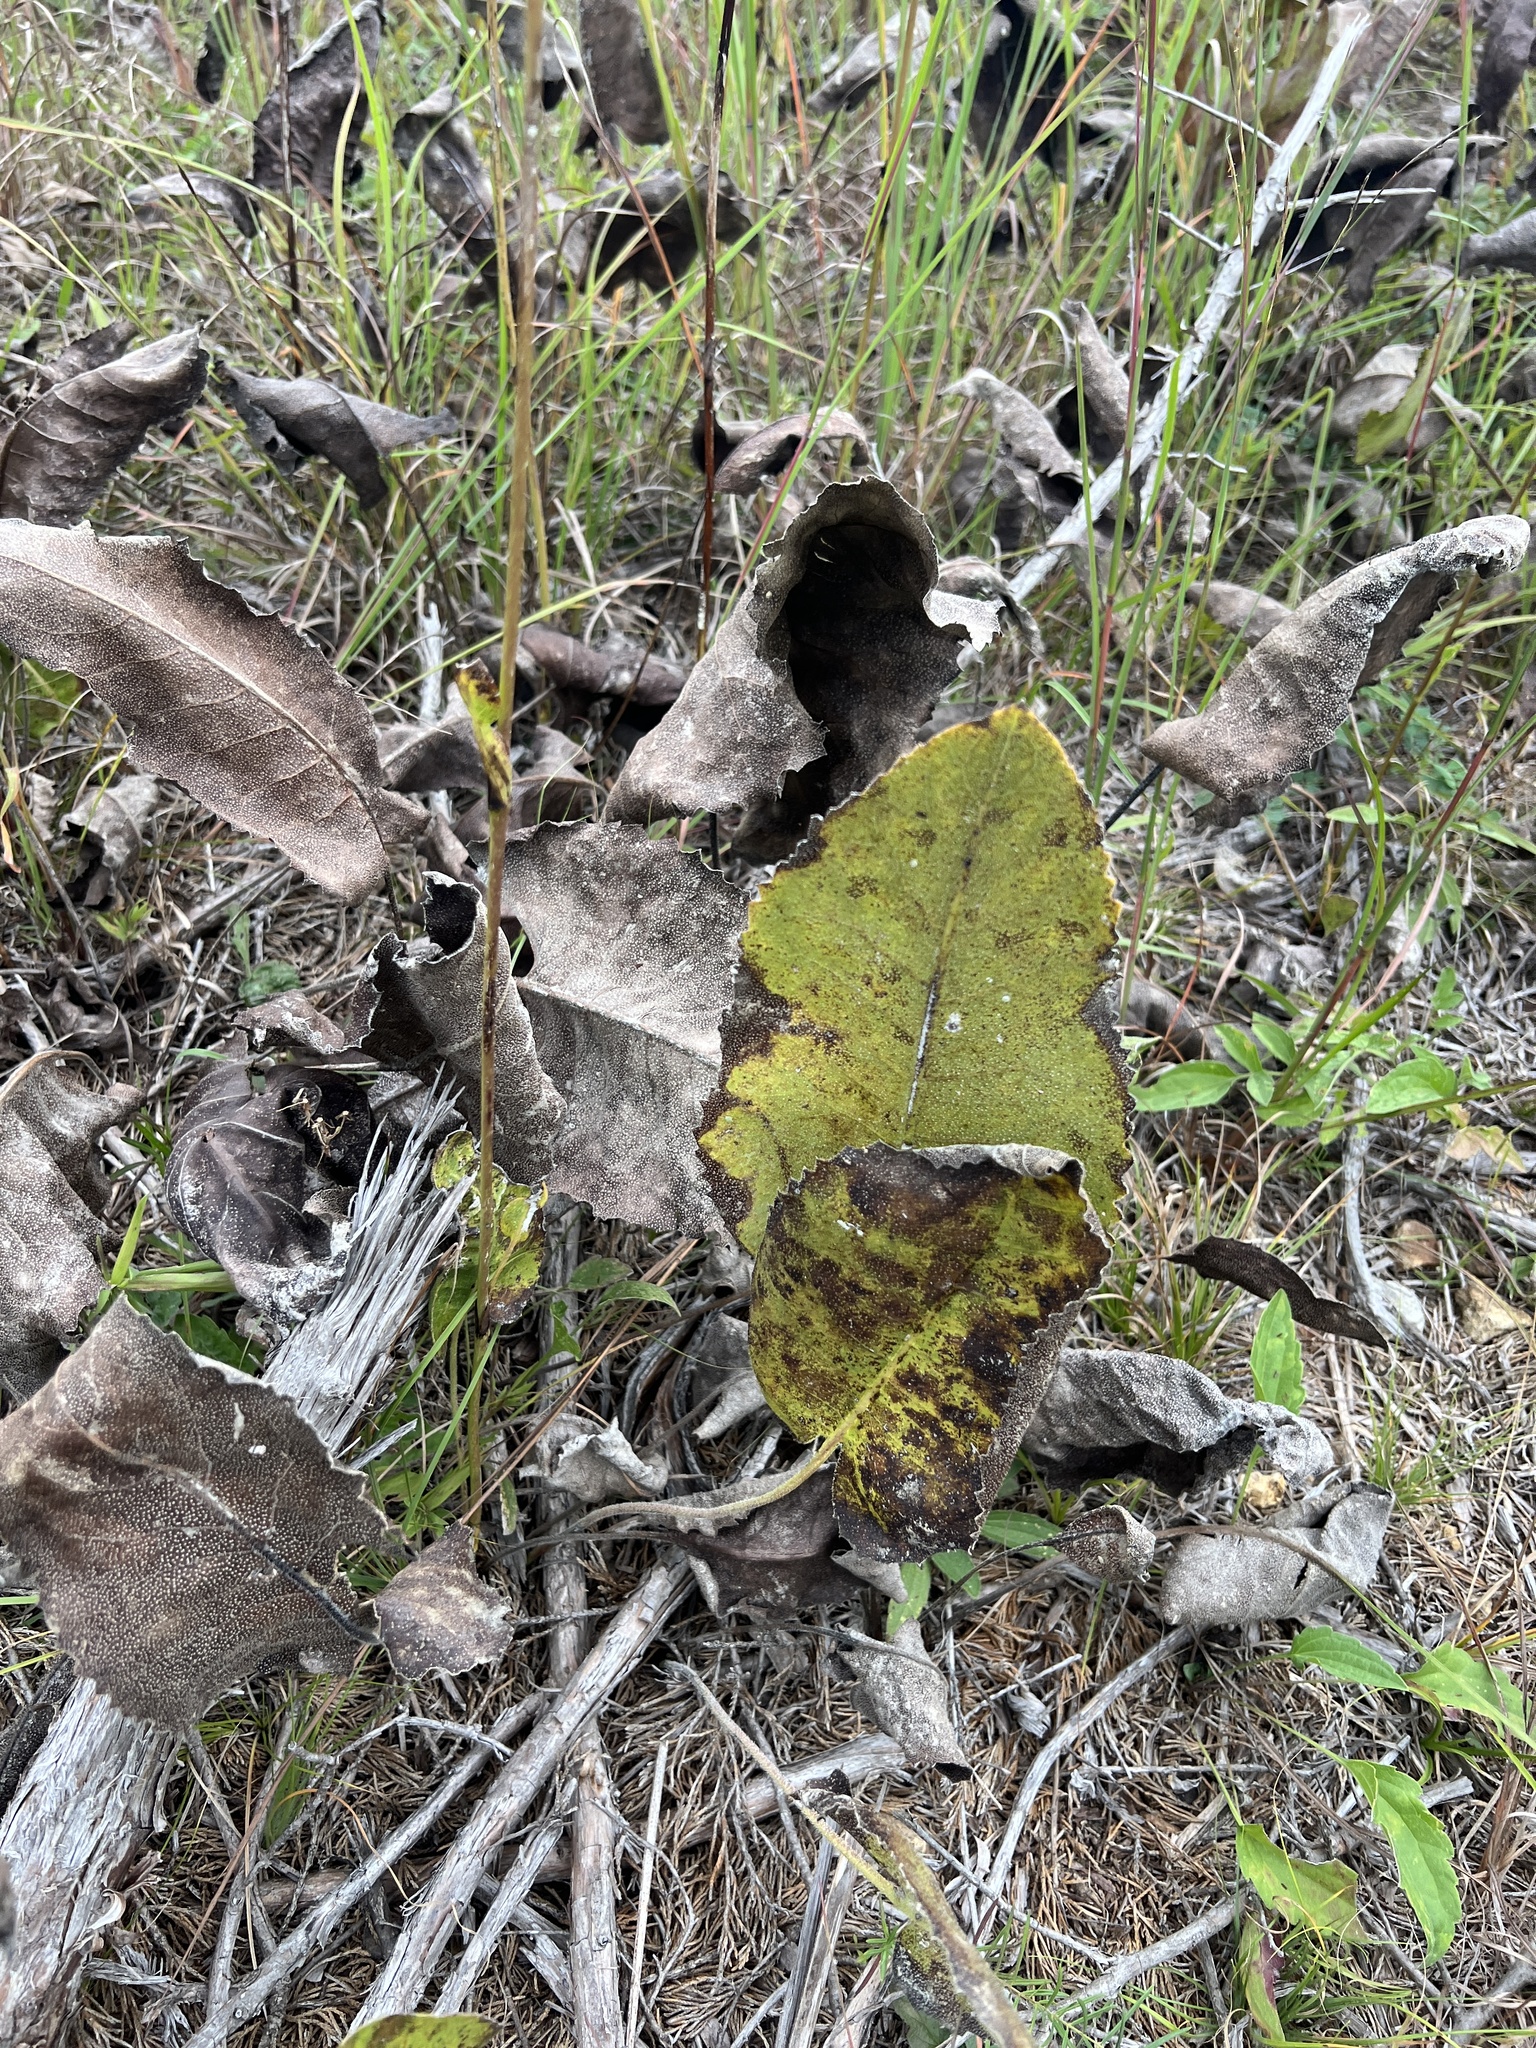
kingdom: Plantae
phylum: Tracheophyta
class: Magnoliopsida
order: Asterales
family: Asteraceae
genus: Silphium
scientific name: Silphium terebinthinaceum
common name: Basal-leaf rosinweed
